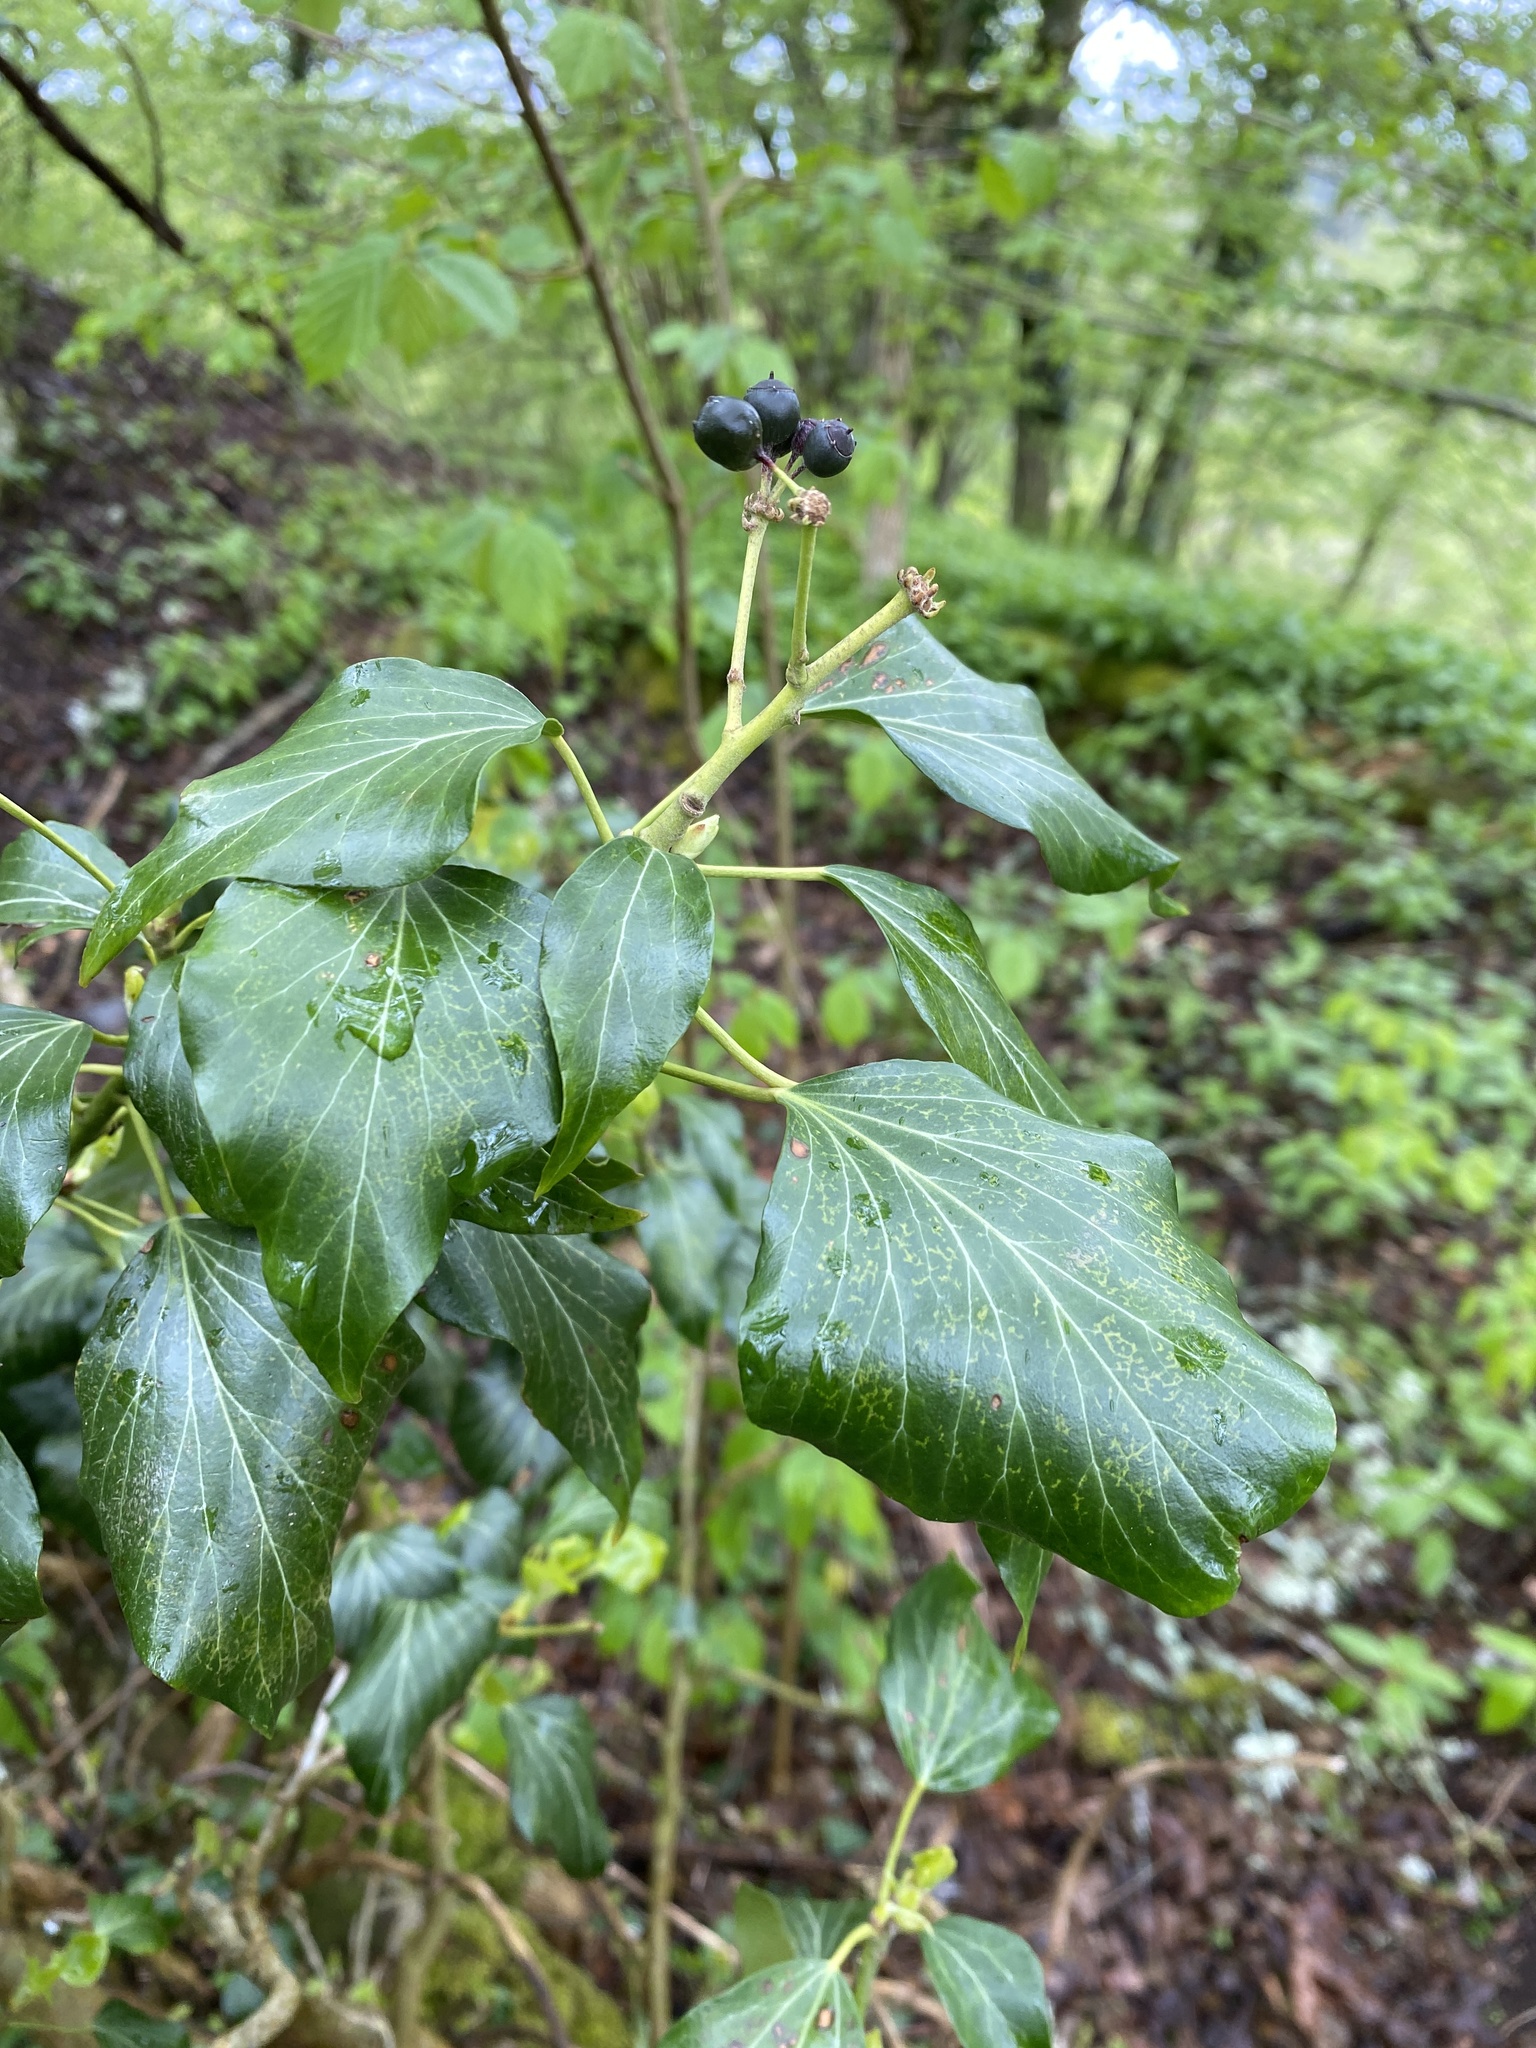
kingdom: Plantae
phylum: Tracheophyta
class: Magnoliopsida
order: Apiales
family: Araliaceae
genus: Hedera
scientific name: Hedera helix
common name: Ivy
